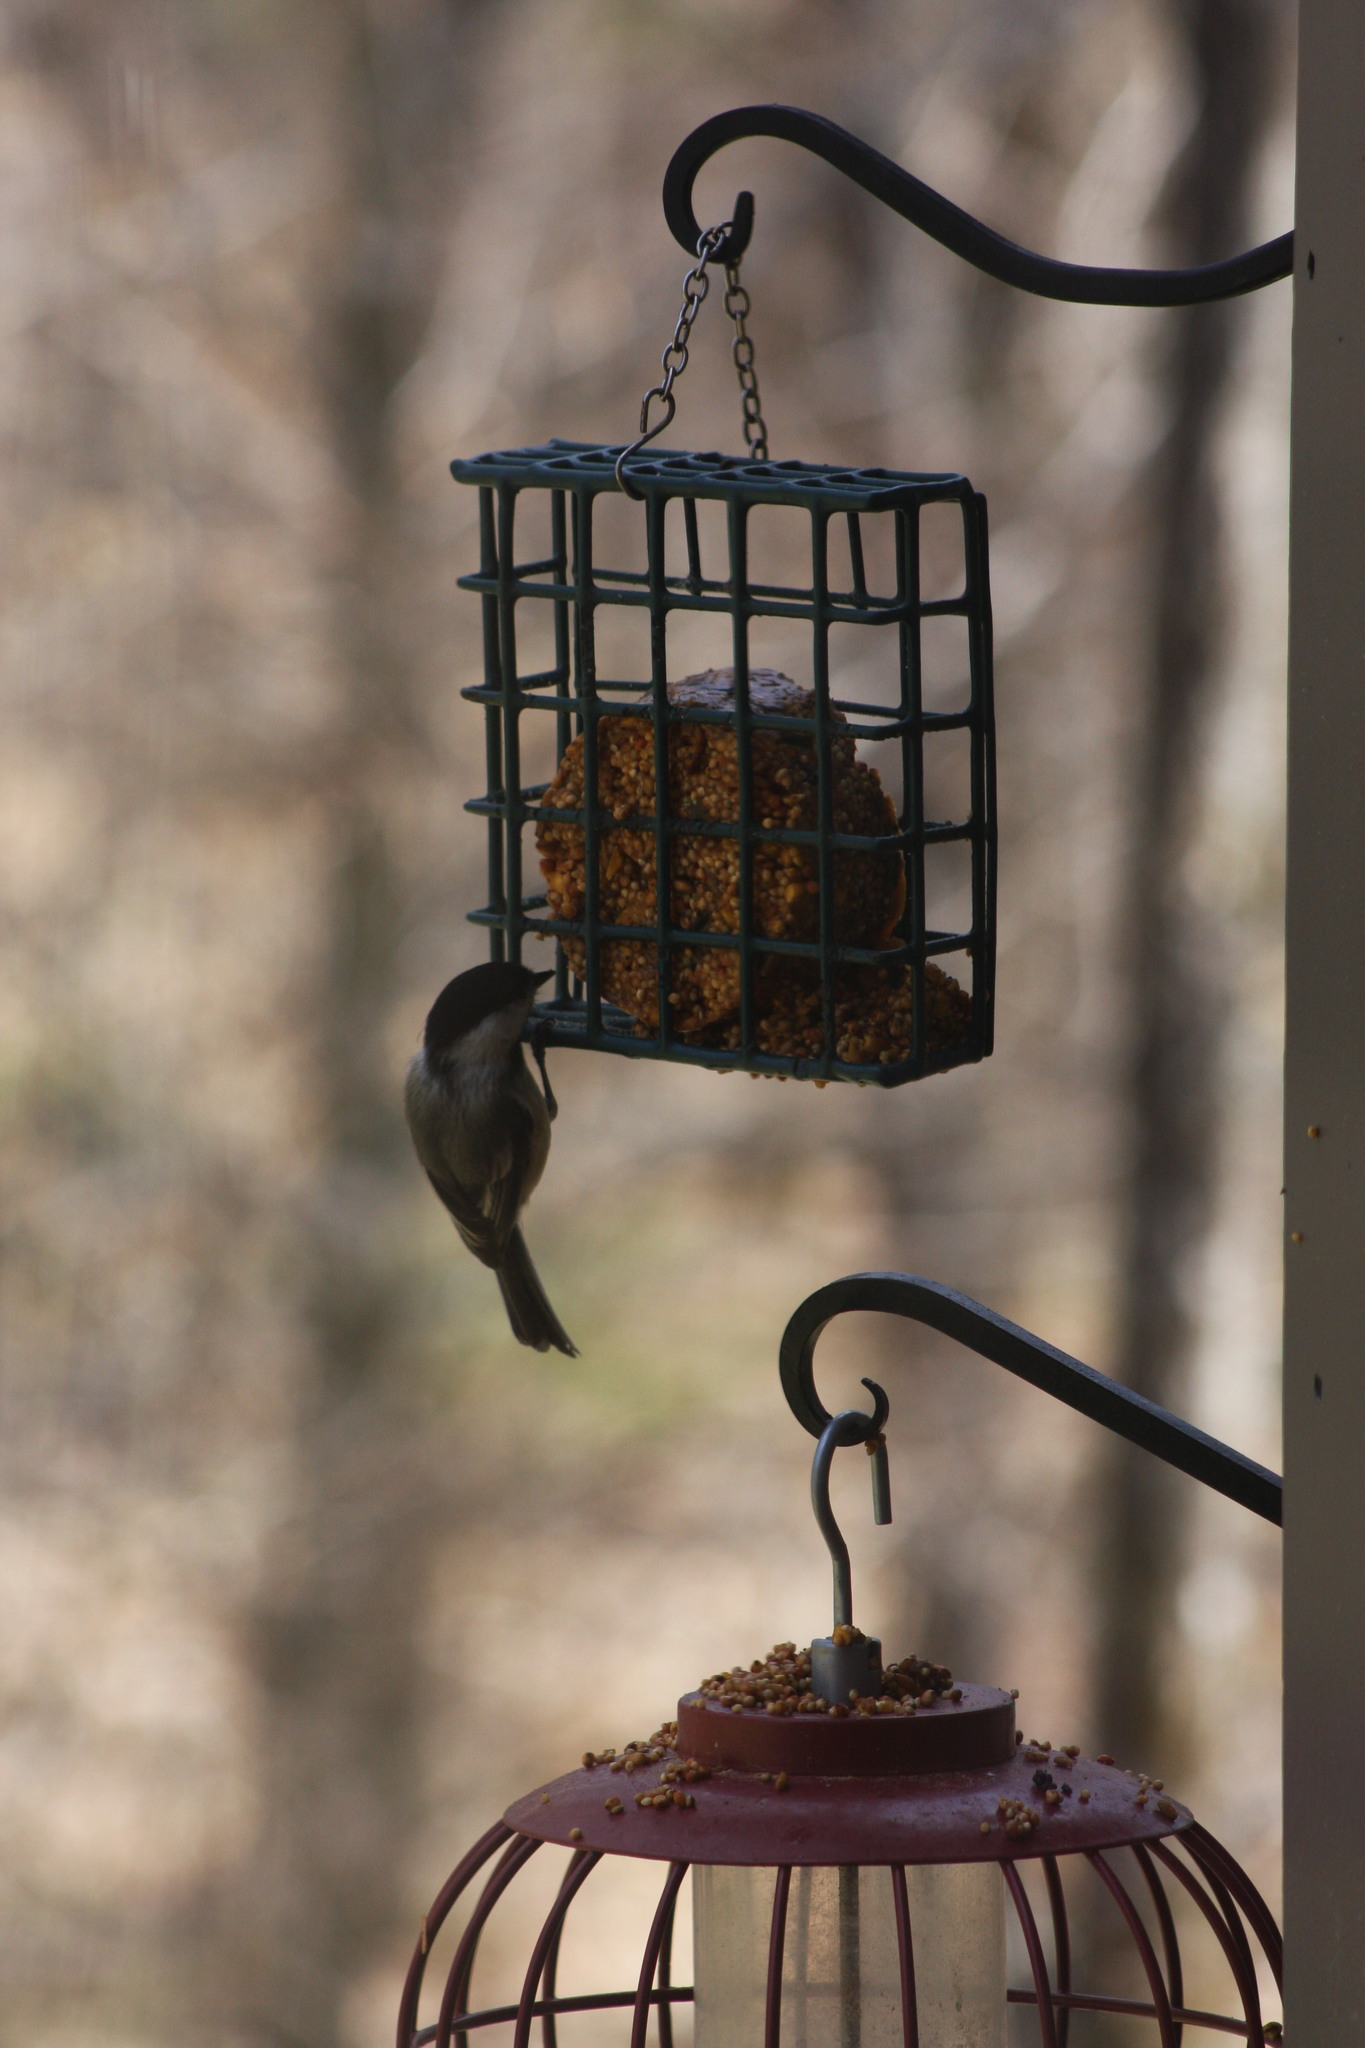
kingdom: Animalia
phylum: Chordata
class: Aves
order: Passeriformes
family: Paridae
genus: Poecile
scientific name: Poecile atricapillus
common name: Black-capped chickadee
